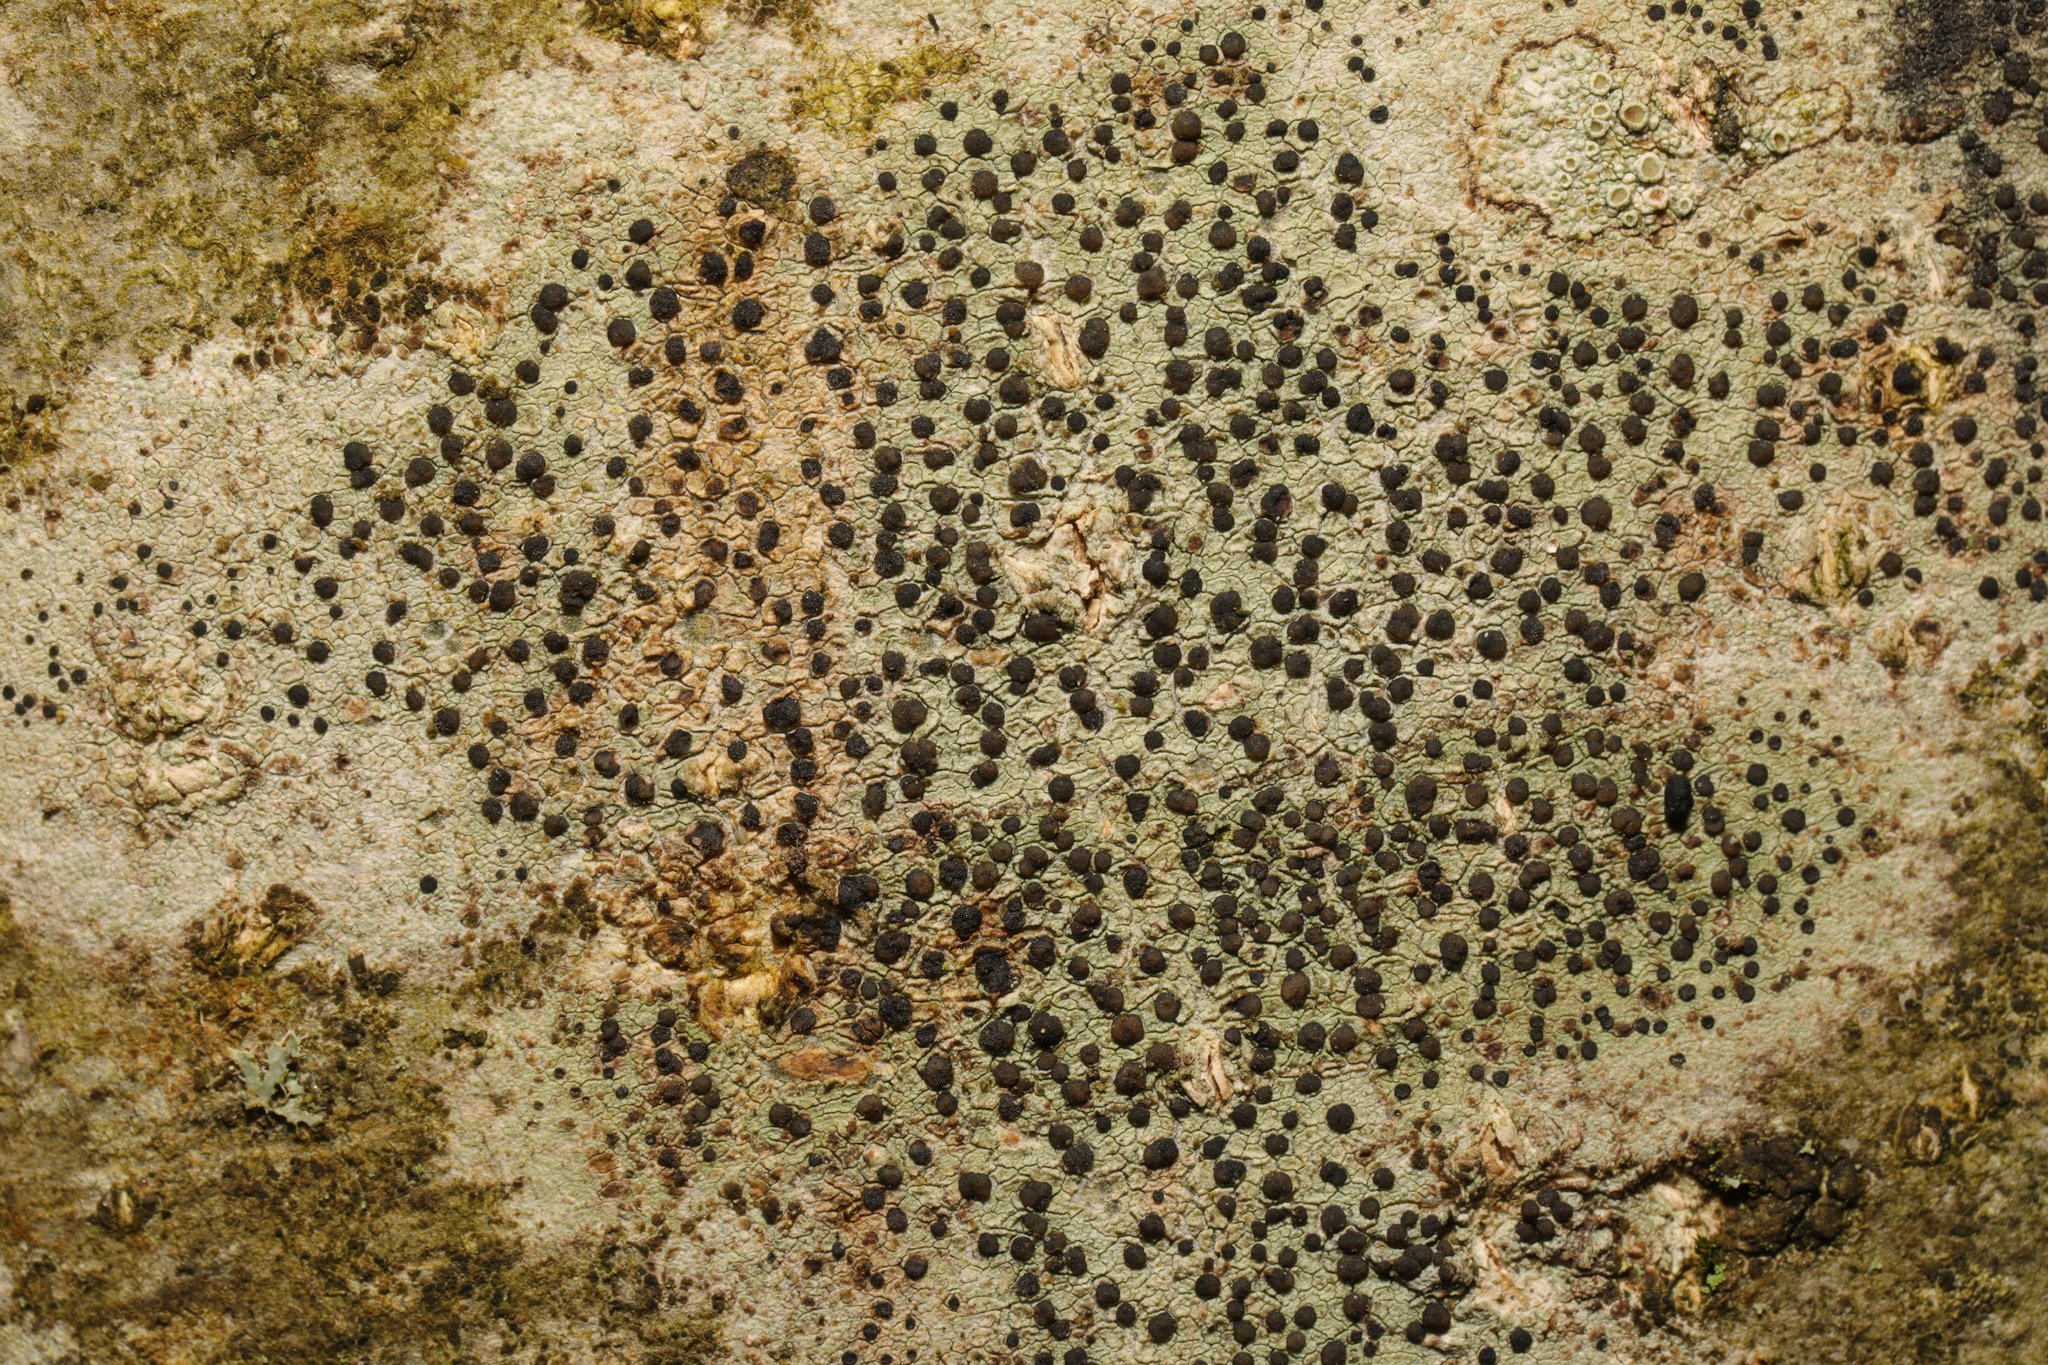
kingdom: Fungi
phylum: Ascomycota
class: Lecanoromycetes
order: Lecanorales
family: Lecanoraceae
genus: Lecidella
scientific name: Lecidella elaeochroma
